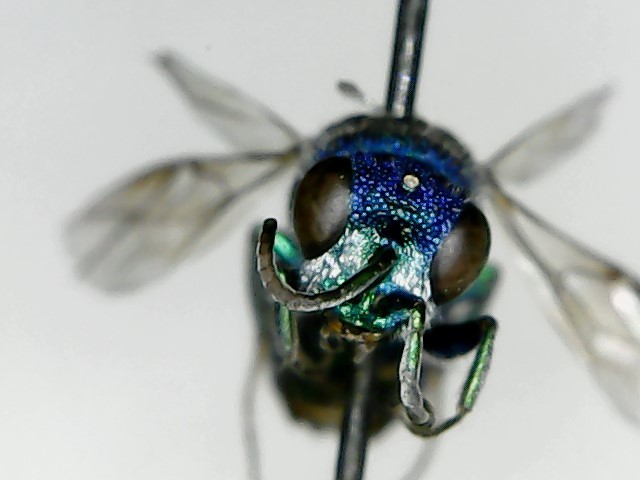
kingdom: Animalia
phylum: Arthropoda
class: Insecta
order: Hymenoptera
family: Chrysididae
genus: Chrysis
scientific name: Chrysis ragusae
